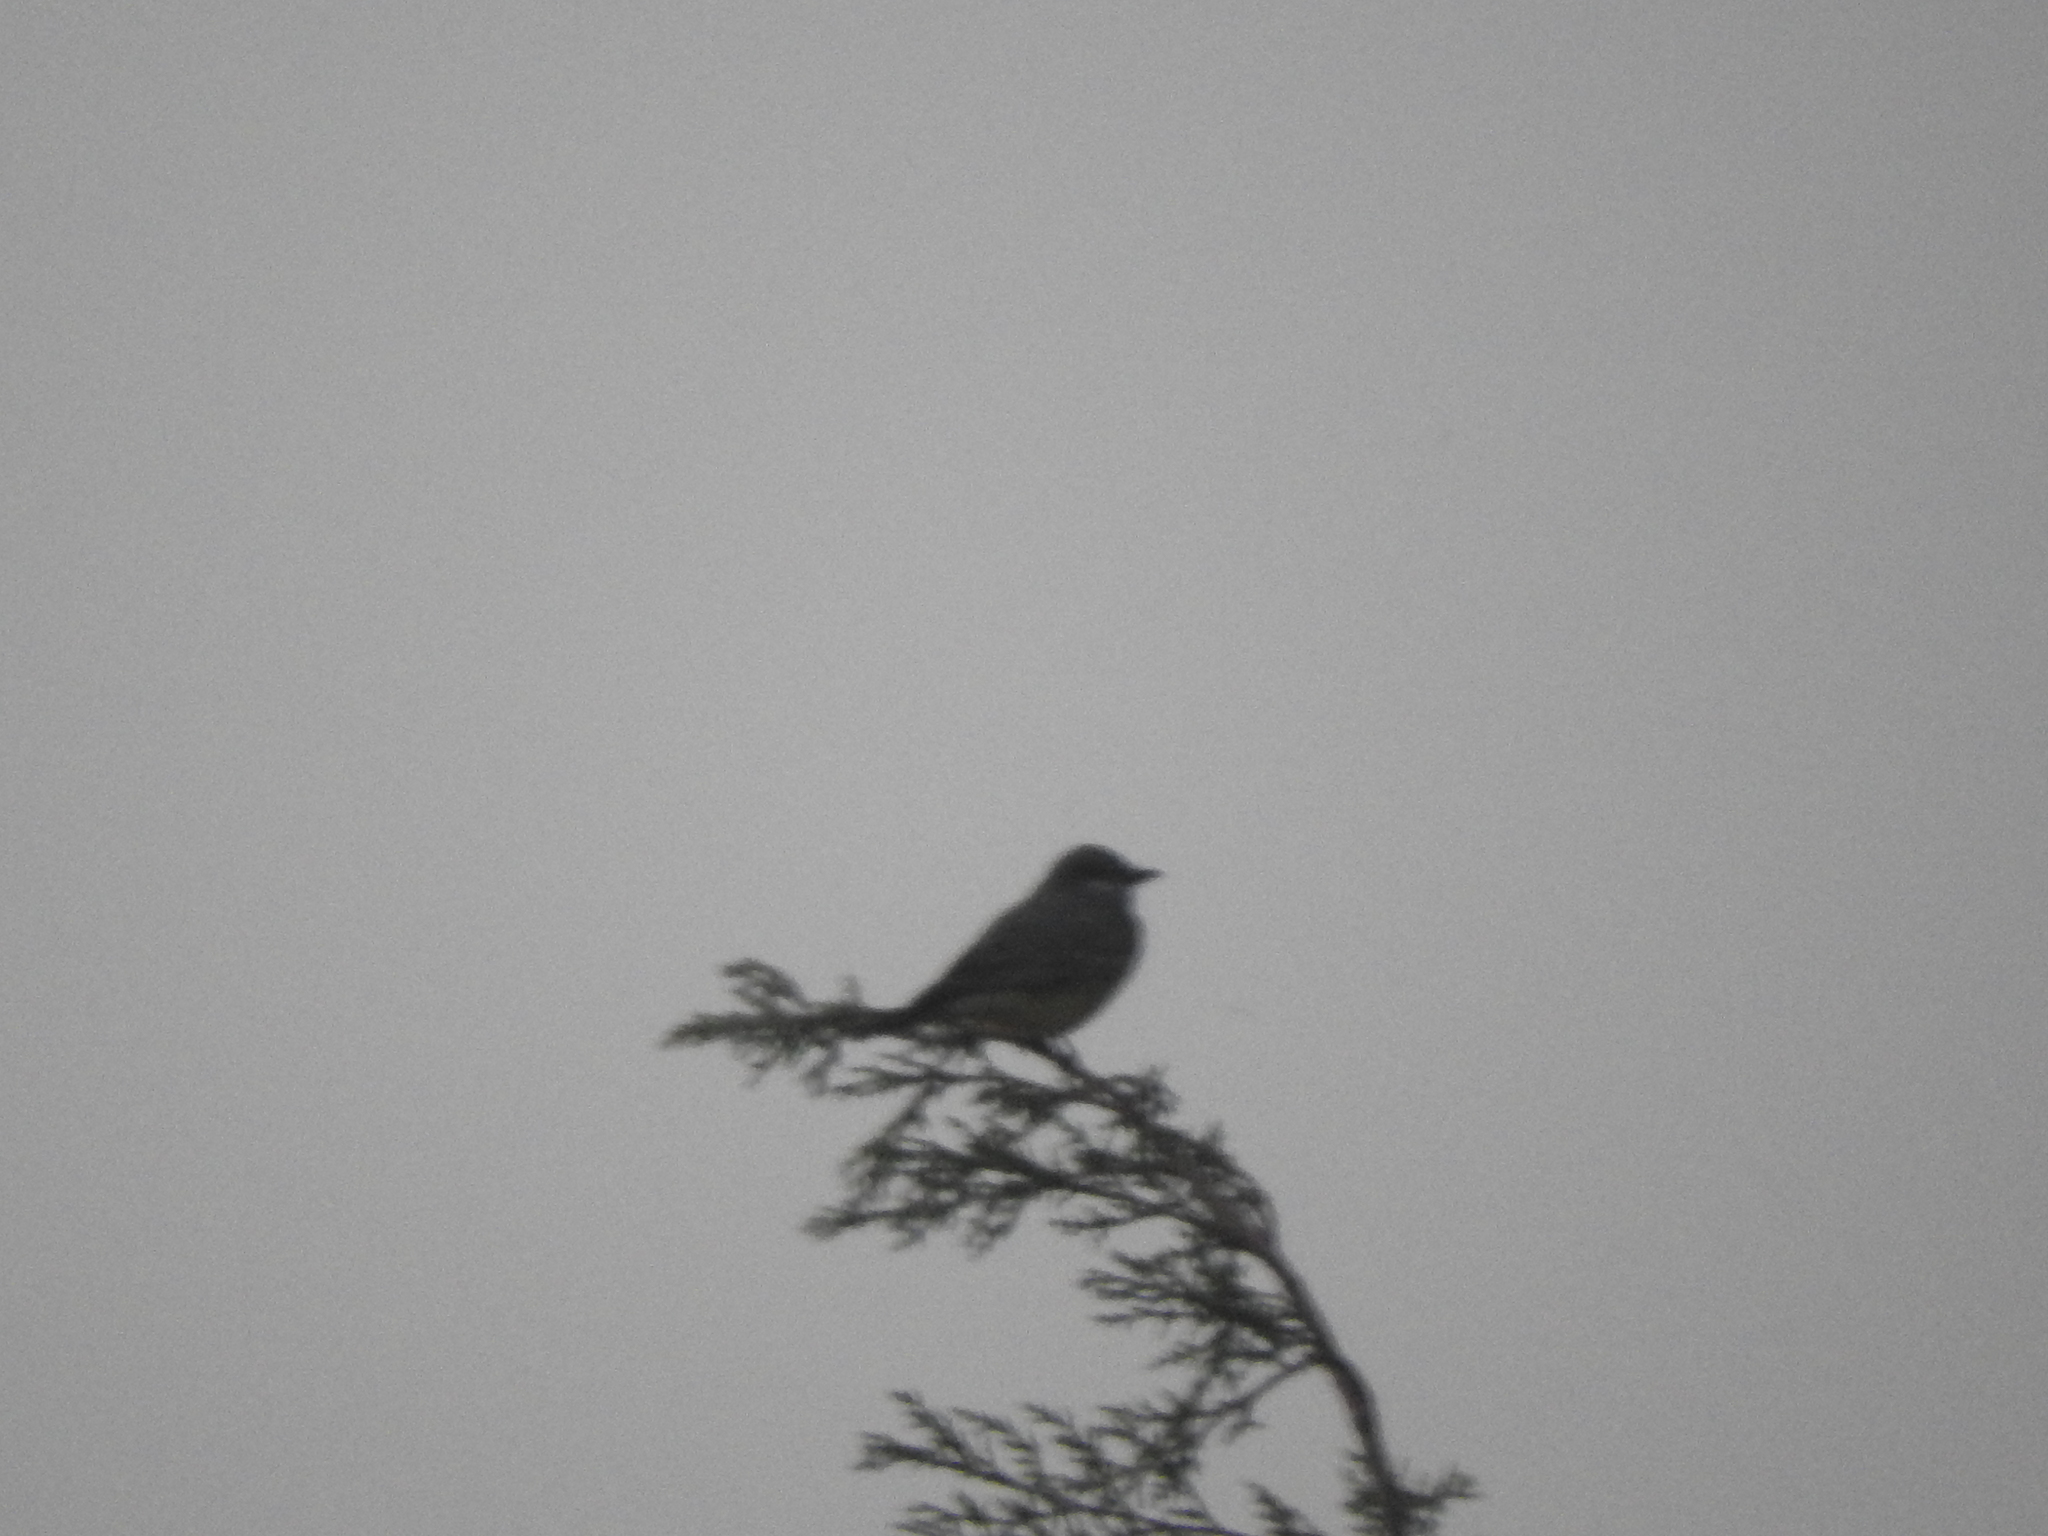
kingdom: Animalia
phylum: Chordata
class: Aves
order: Passeriformes
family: Tyrannidae
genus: Tyrannus
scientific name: Tyrannus vociferans
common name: Cassin's kingbird
